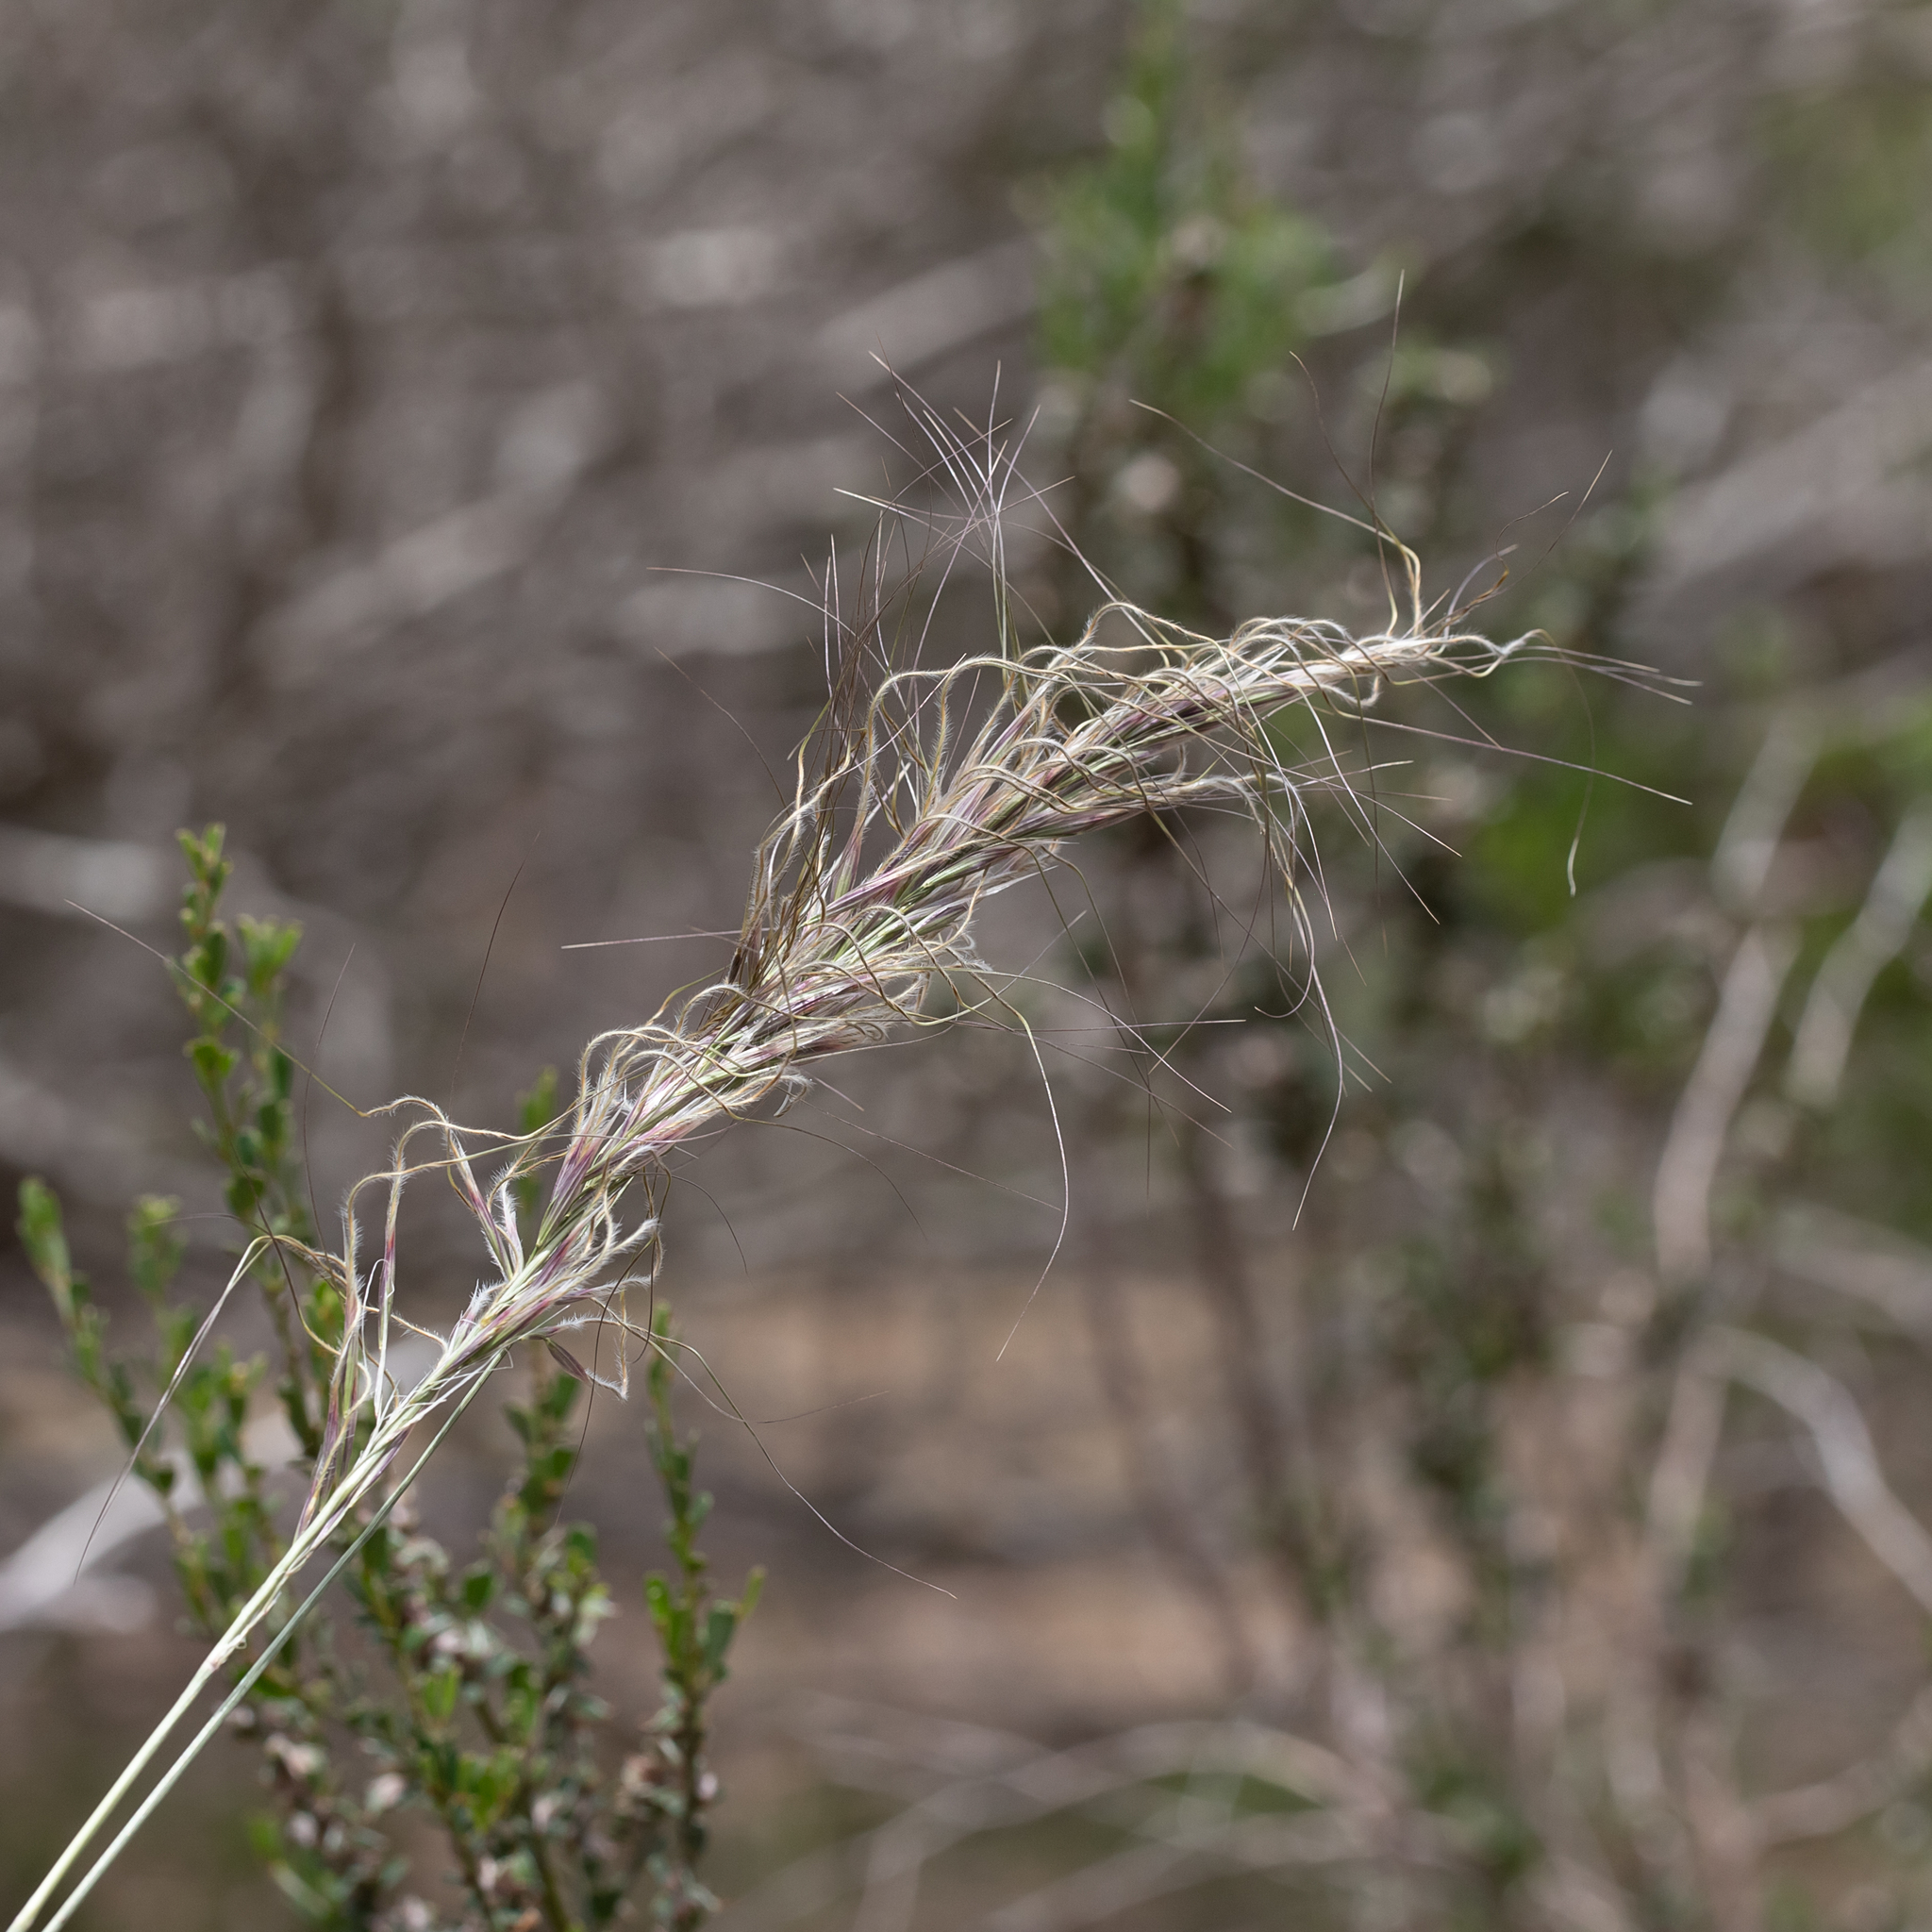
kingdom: Plantae
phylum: Tracheophyta
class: Liliopsida
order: Poales
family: Poaceae
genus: Austrostipa
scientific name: Austrostipa mollis
